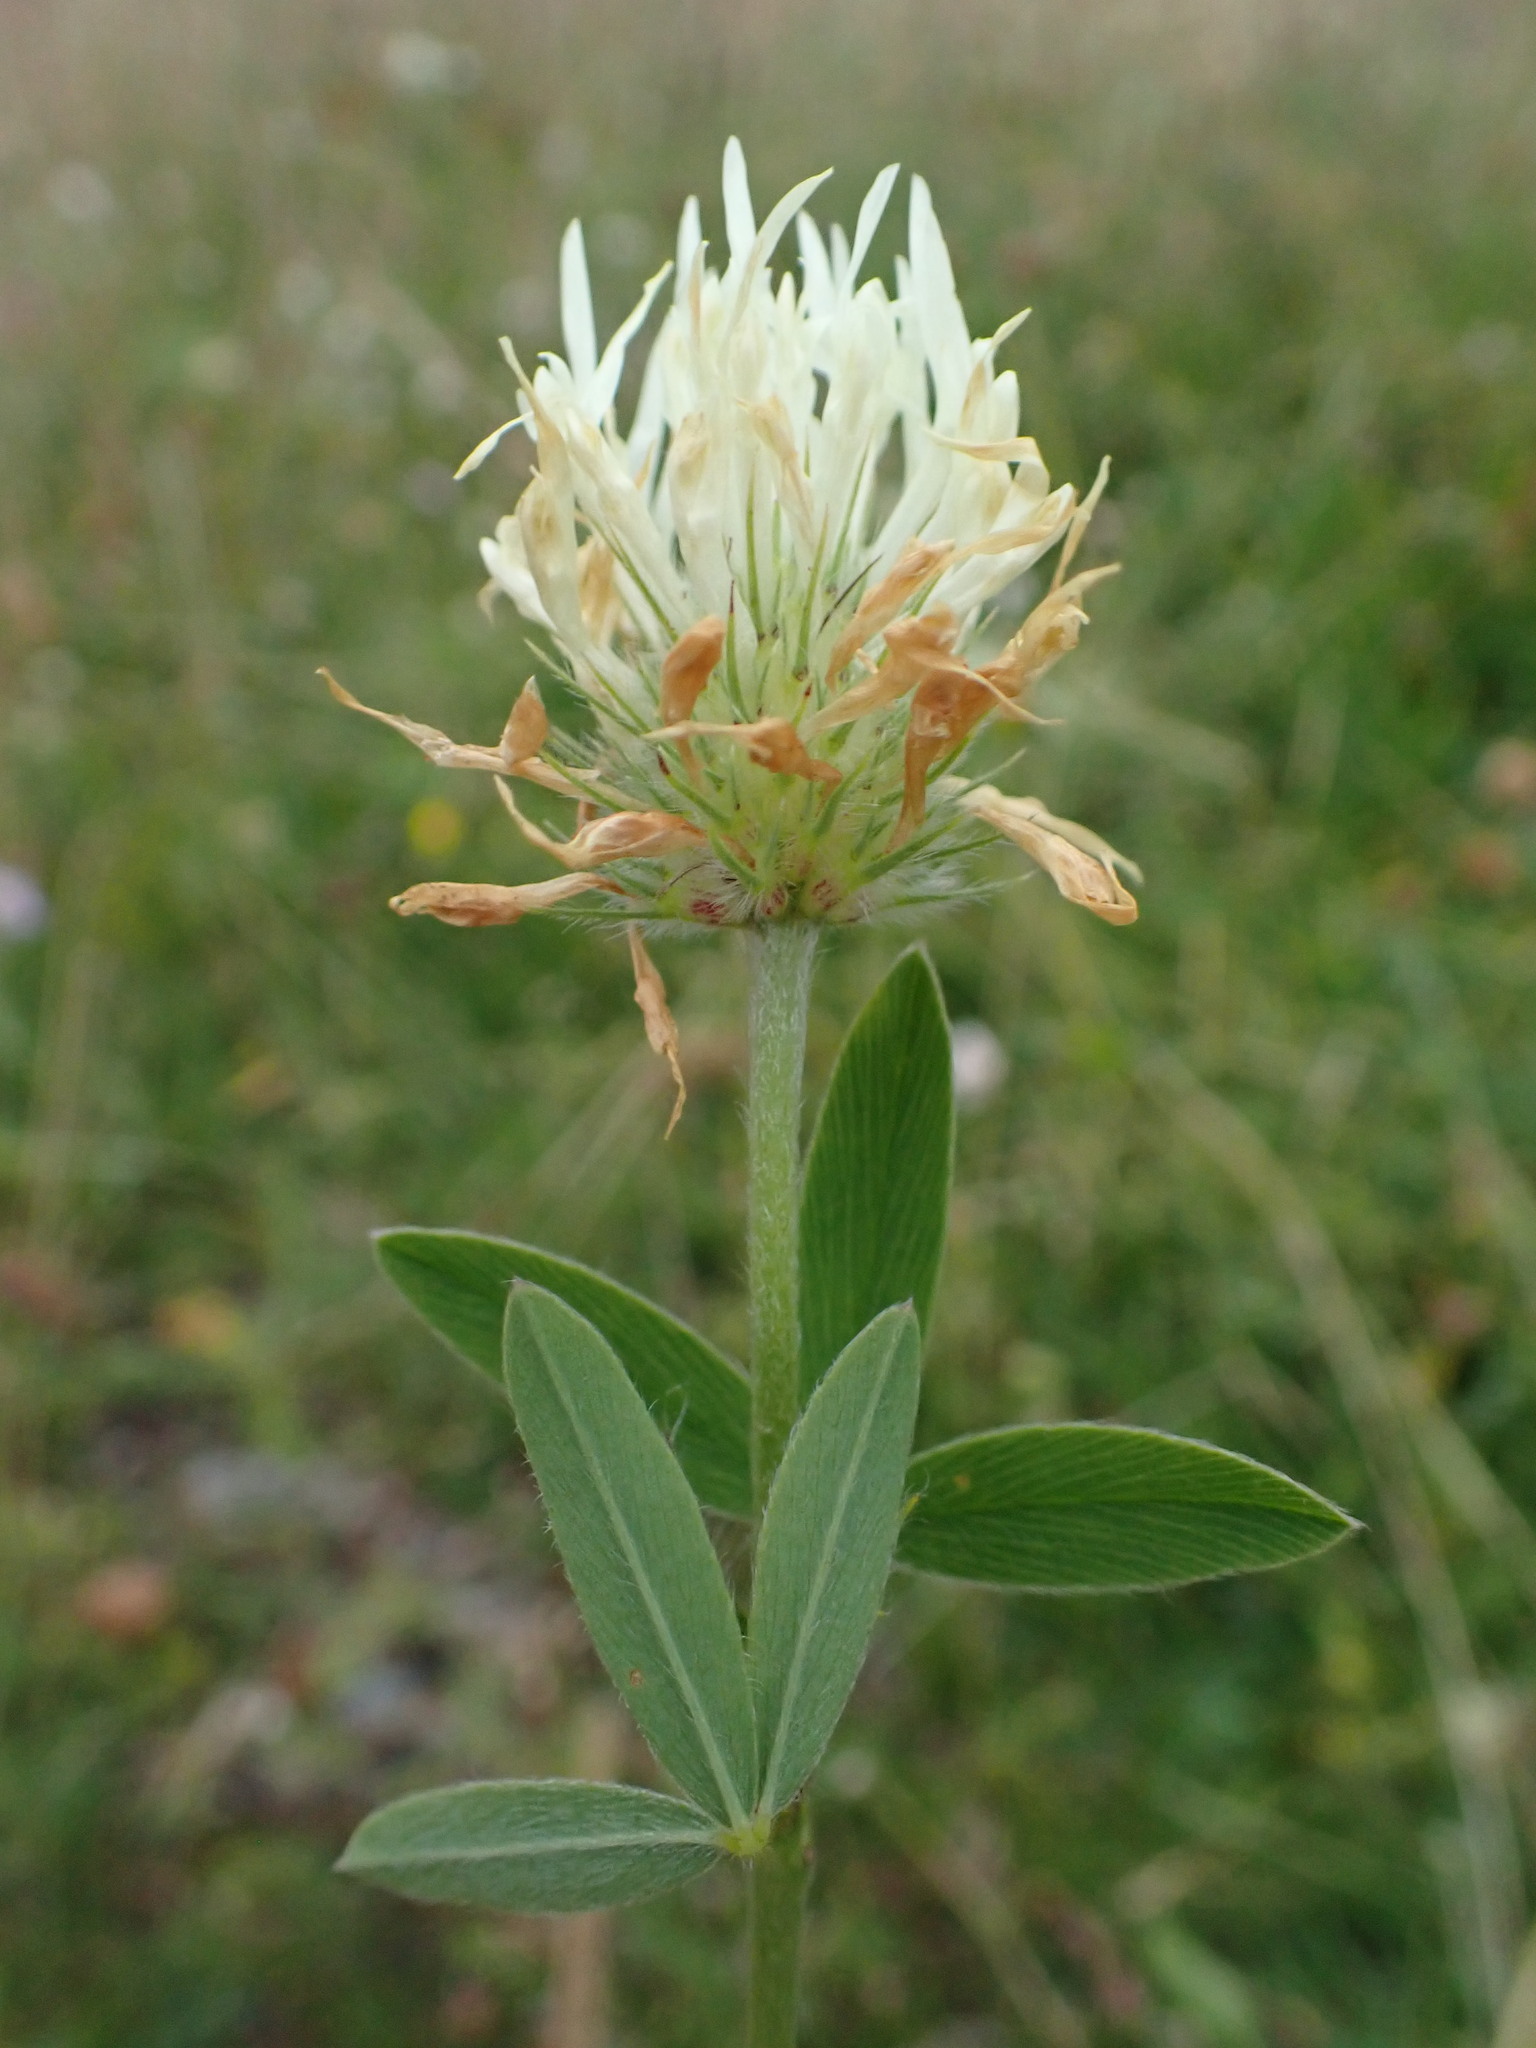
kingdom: Plantae
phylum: Tracheophyta
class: Magnoliopsida
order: Fabales
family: Fabaceae
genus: Trifolium
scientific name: Trifolium ochroleucon
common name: Sulphur clover
